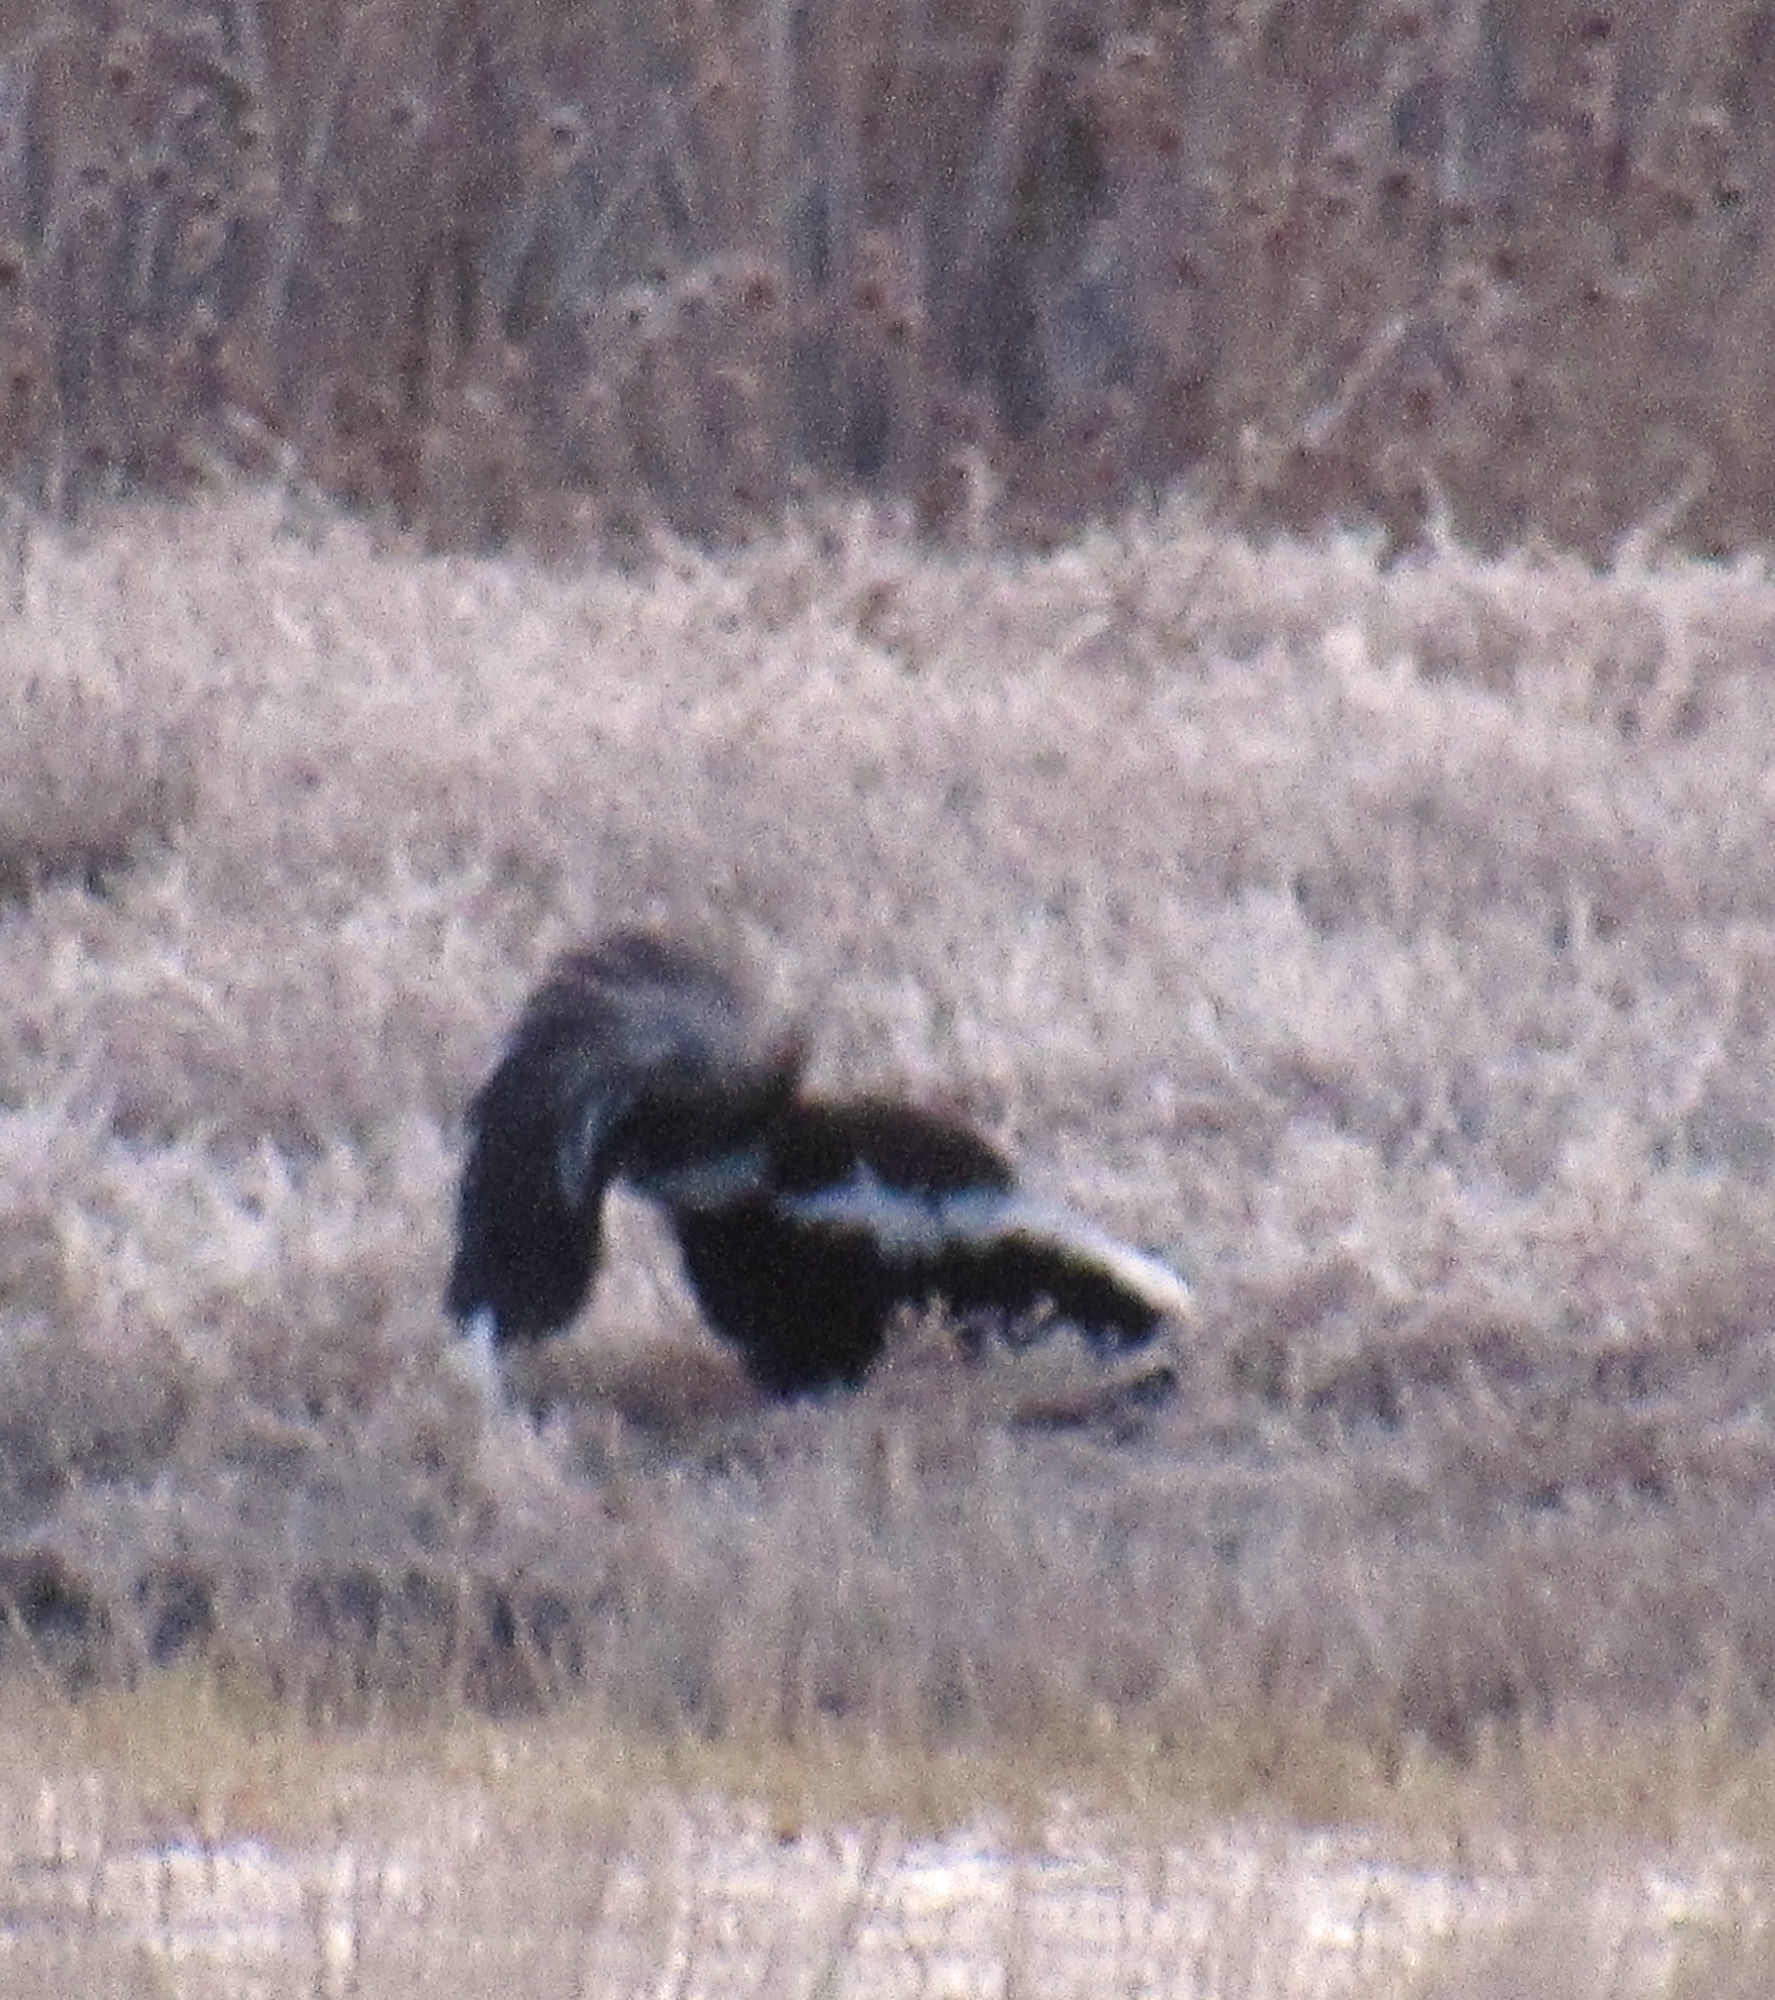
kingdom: Animalia
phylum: Chordata
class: Mammalia
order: Carnivora
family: Mephitidae
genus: Mephitis
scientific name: Mephitis mephitis
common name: Striped skunk
